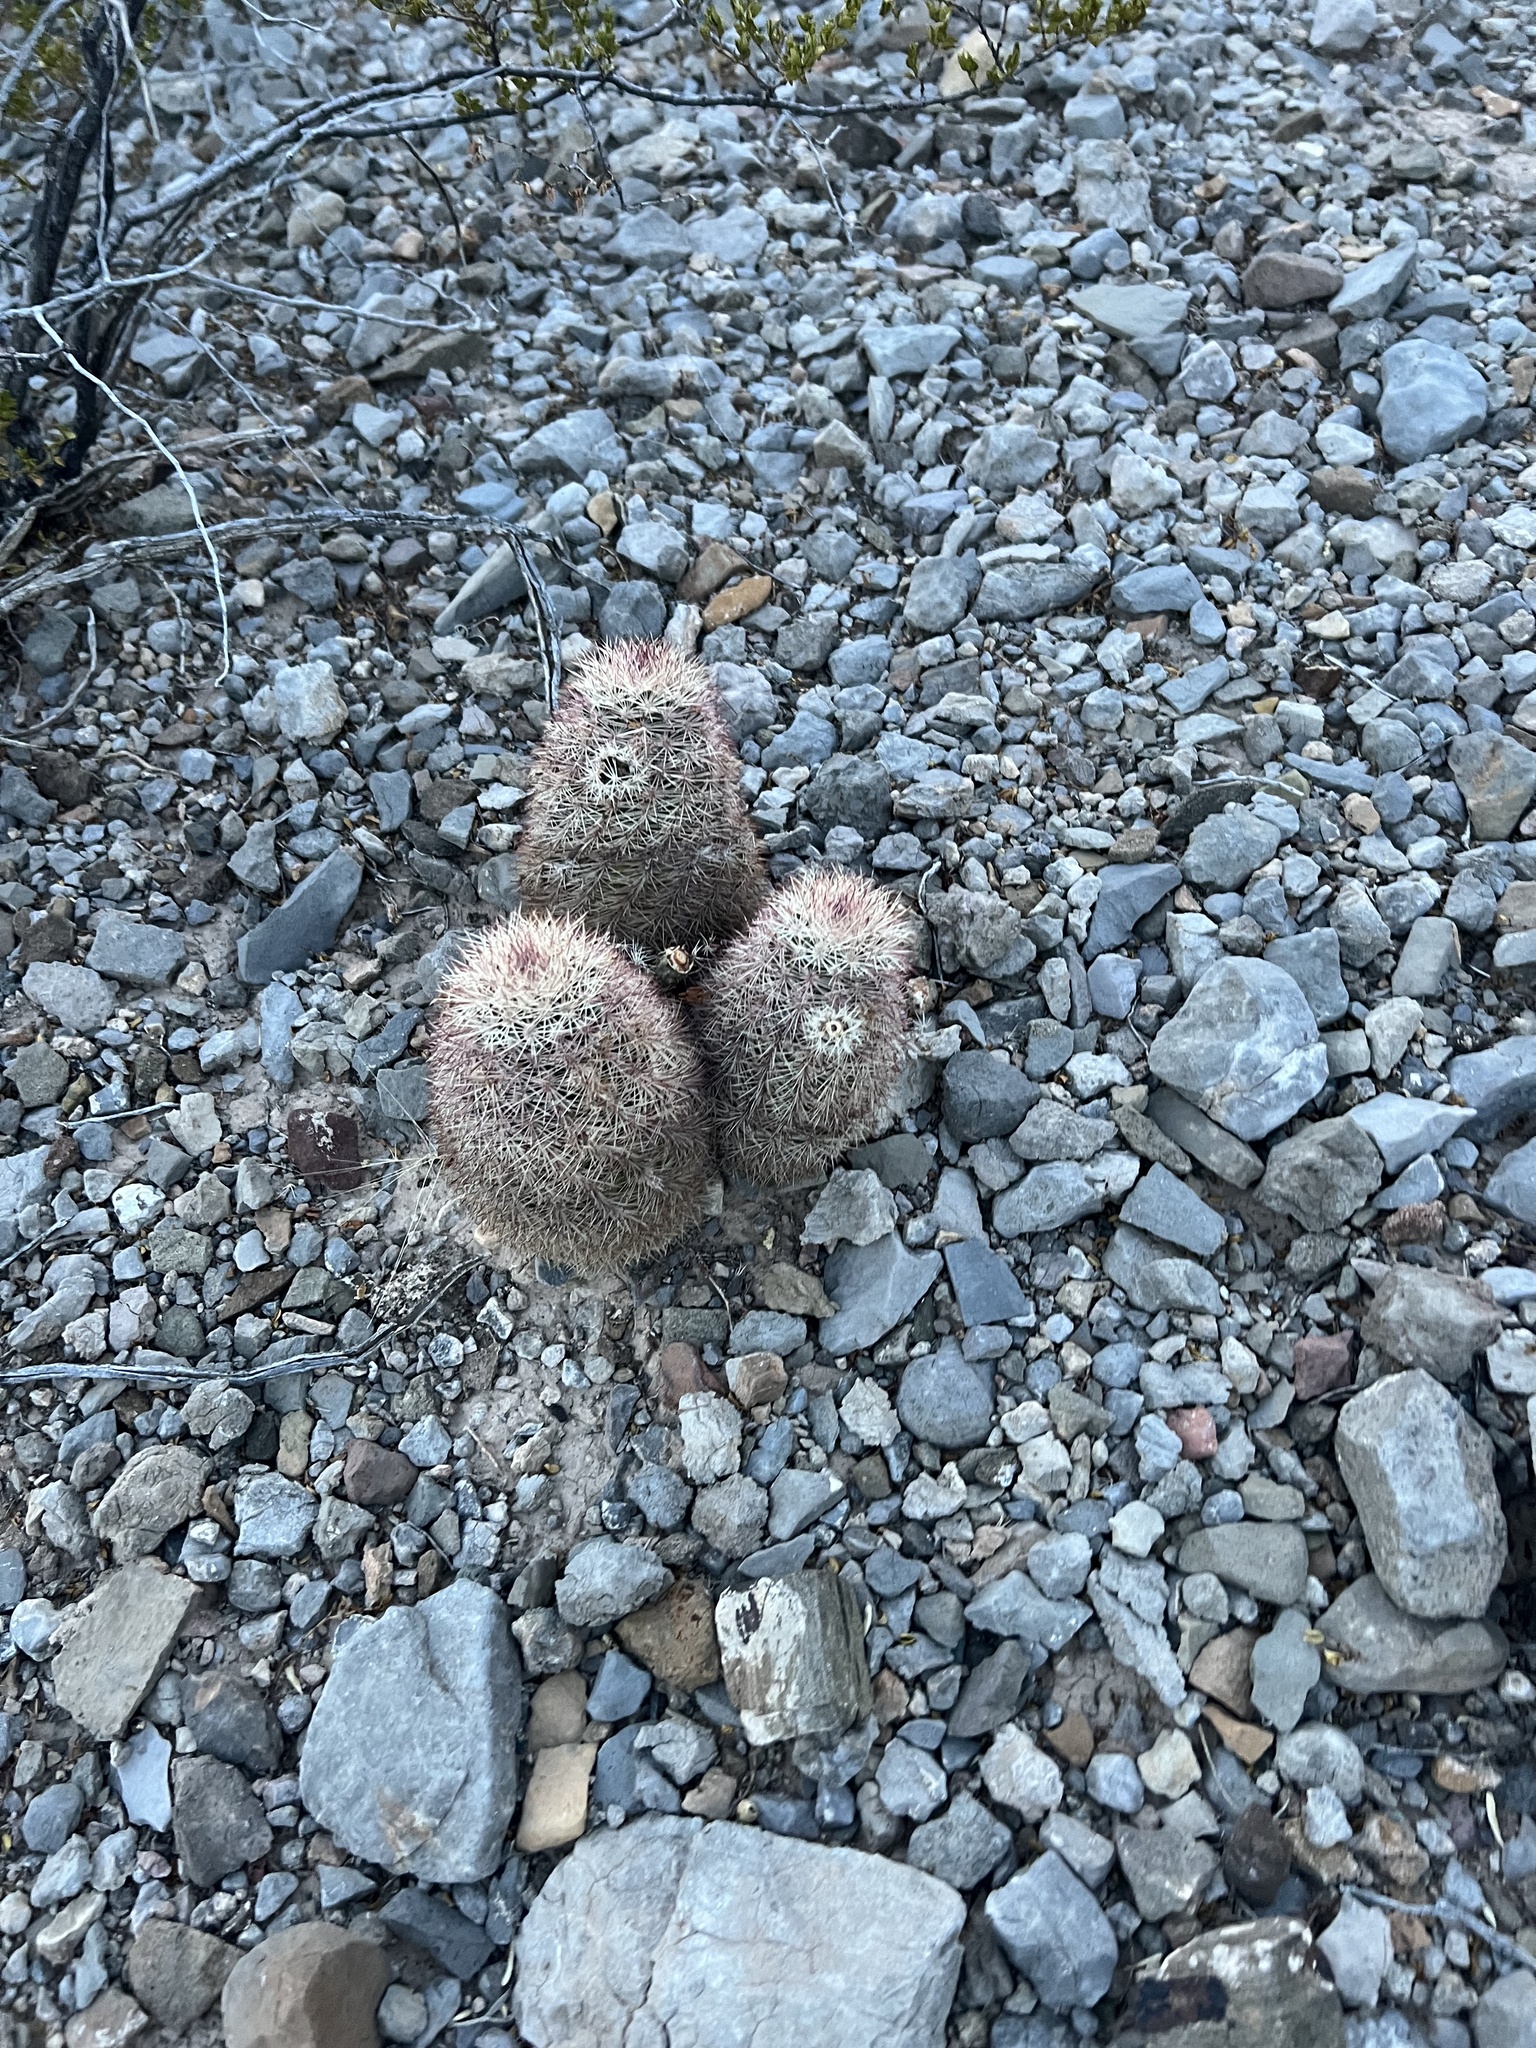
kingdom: Plantae
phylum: Tracheophyta
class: Magnoliopsida
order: Caryophyllales
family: Cactaceae
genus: Echinocereus
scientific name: Echinocereus dasyacanthus
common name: Spiny hedgehog cactus
